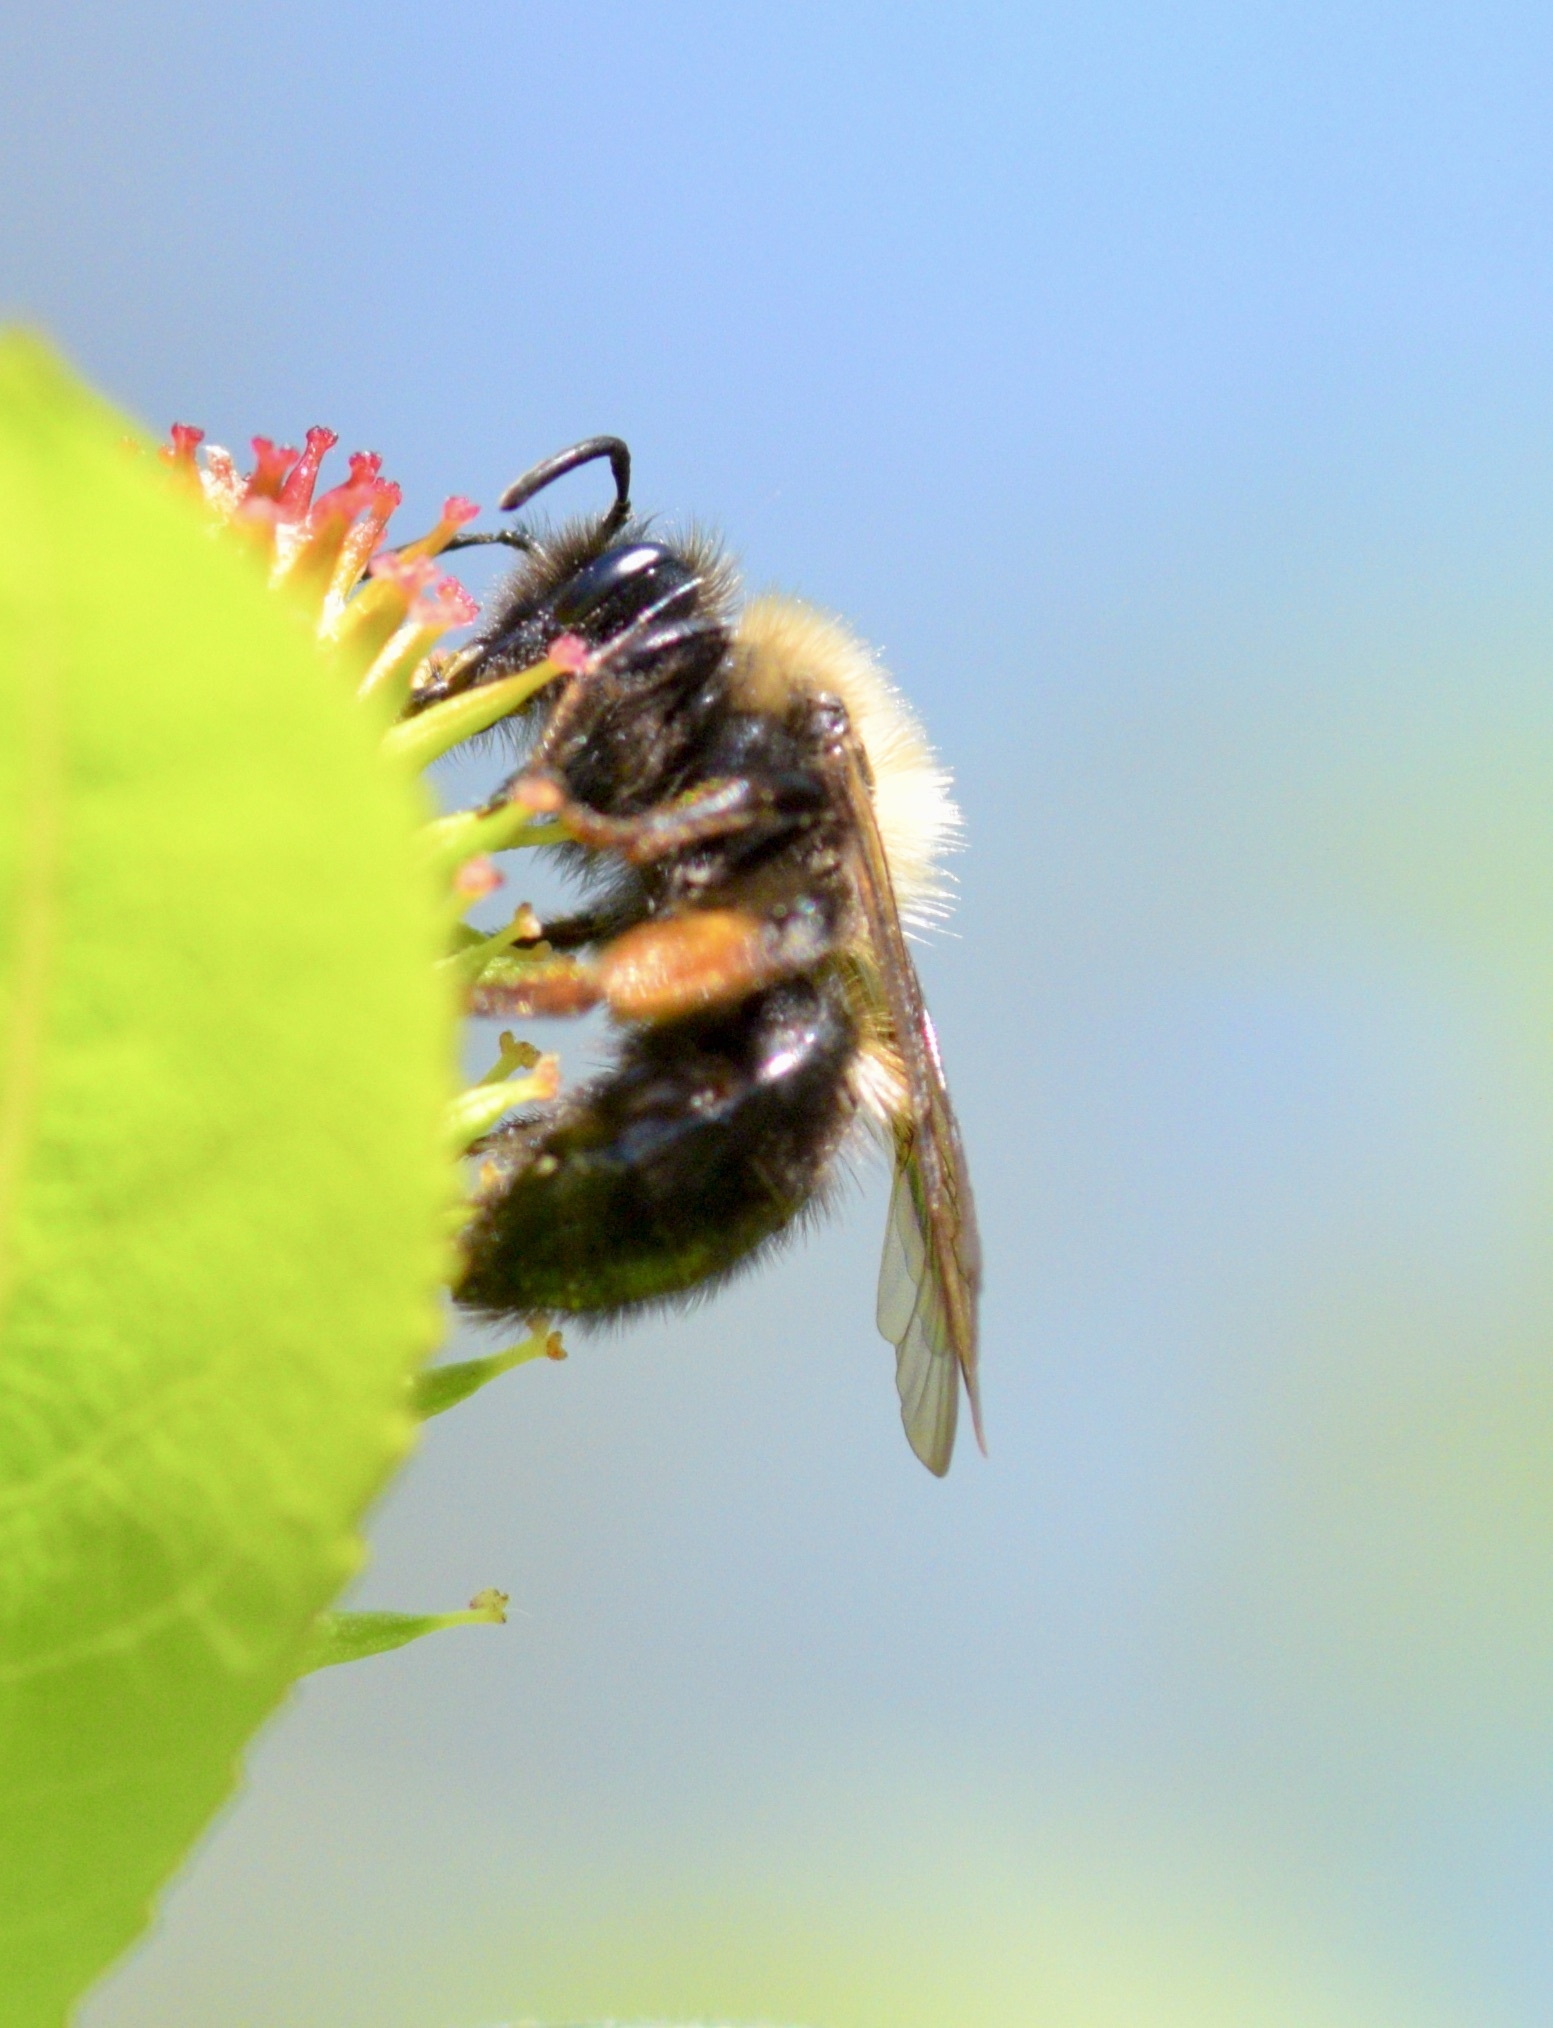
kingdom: Animalia
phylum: Arthropoda
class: Insecta
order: Hymenoptera
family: Andrenidae
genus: Andrena
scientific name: Andrena clarkella
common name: Clarke's mining bee
